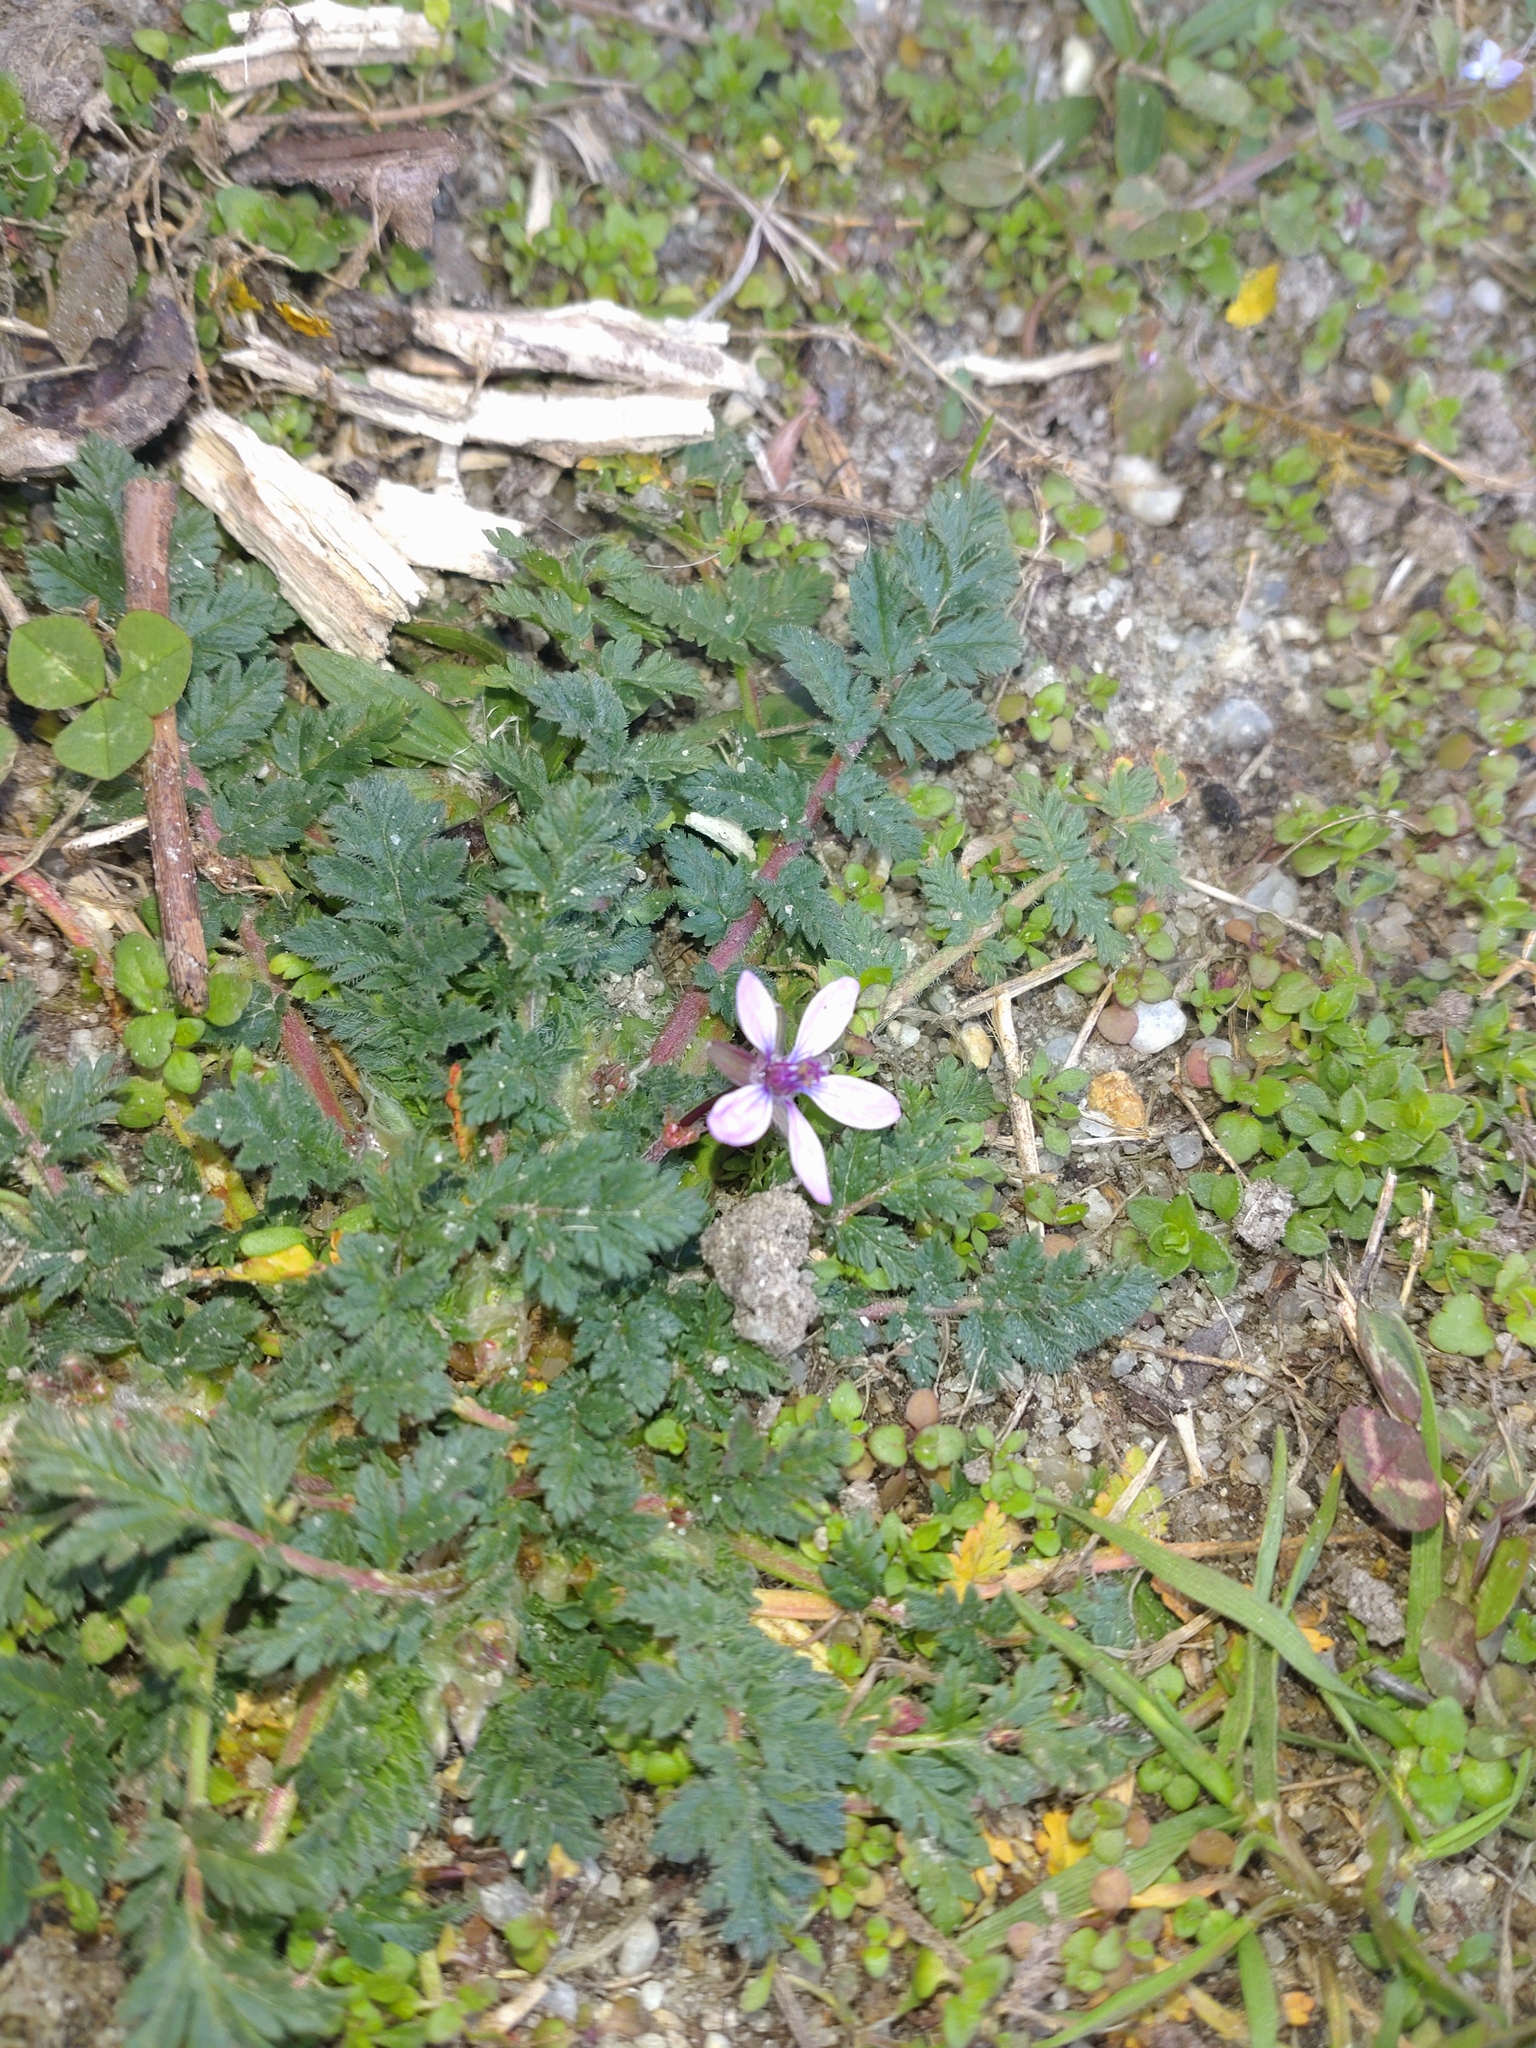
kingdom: Plantae
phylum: Tracheophyta
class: Magnoliopsida
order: Geraniales
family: Geraniaceae
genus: Erodium
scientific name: Erodium cicutarium
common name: Common stork's-bill
